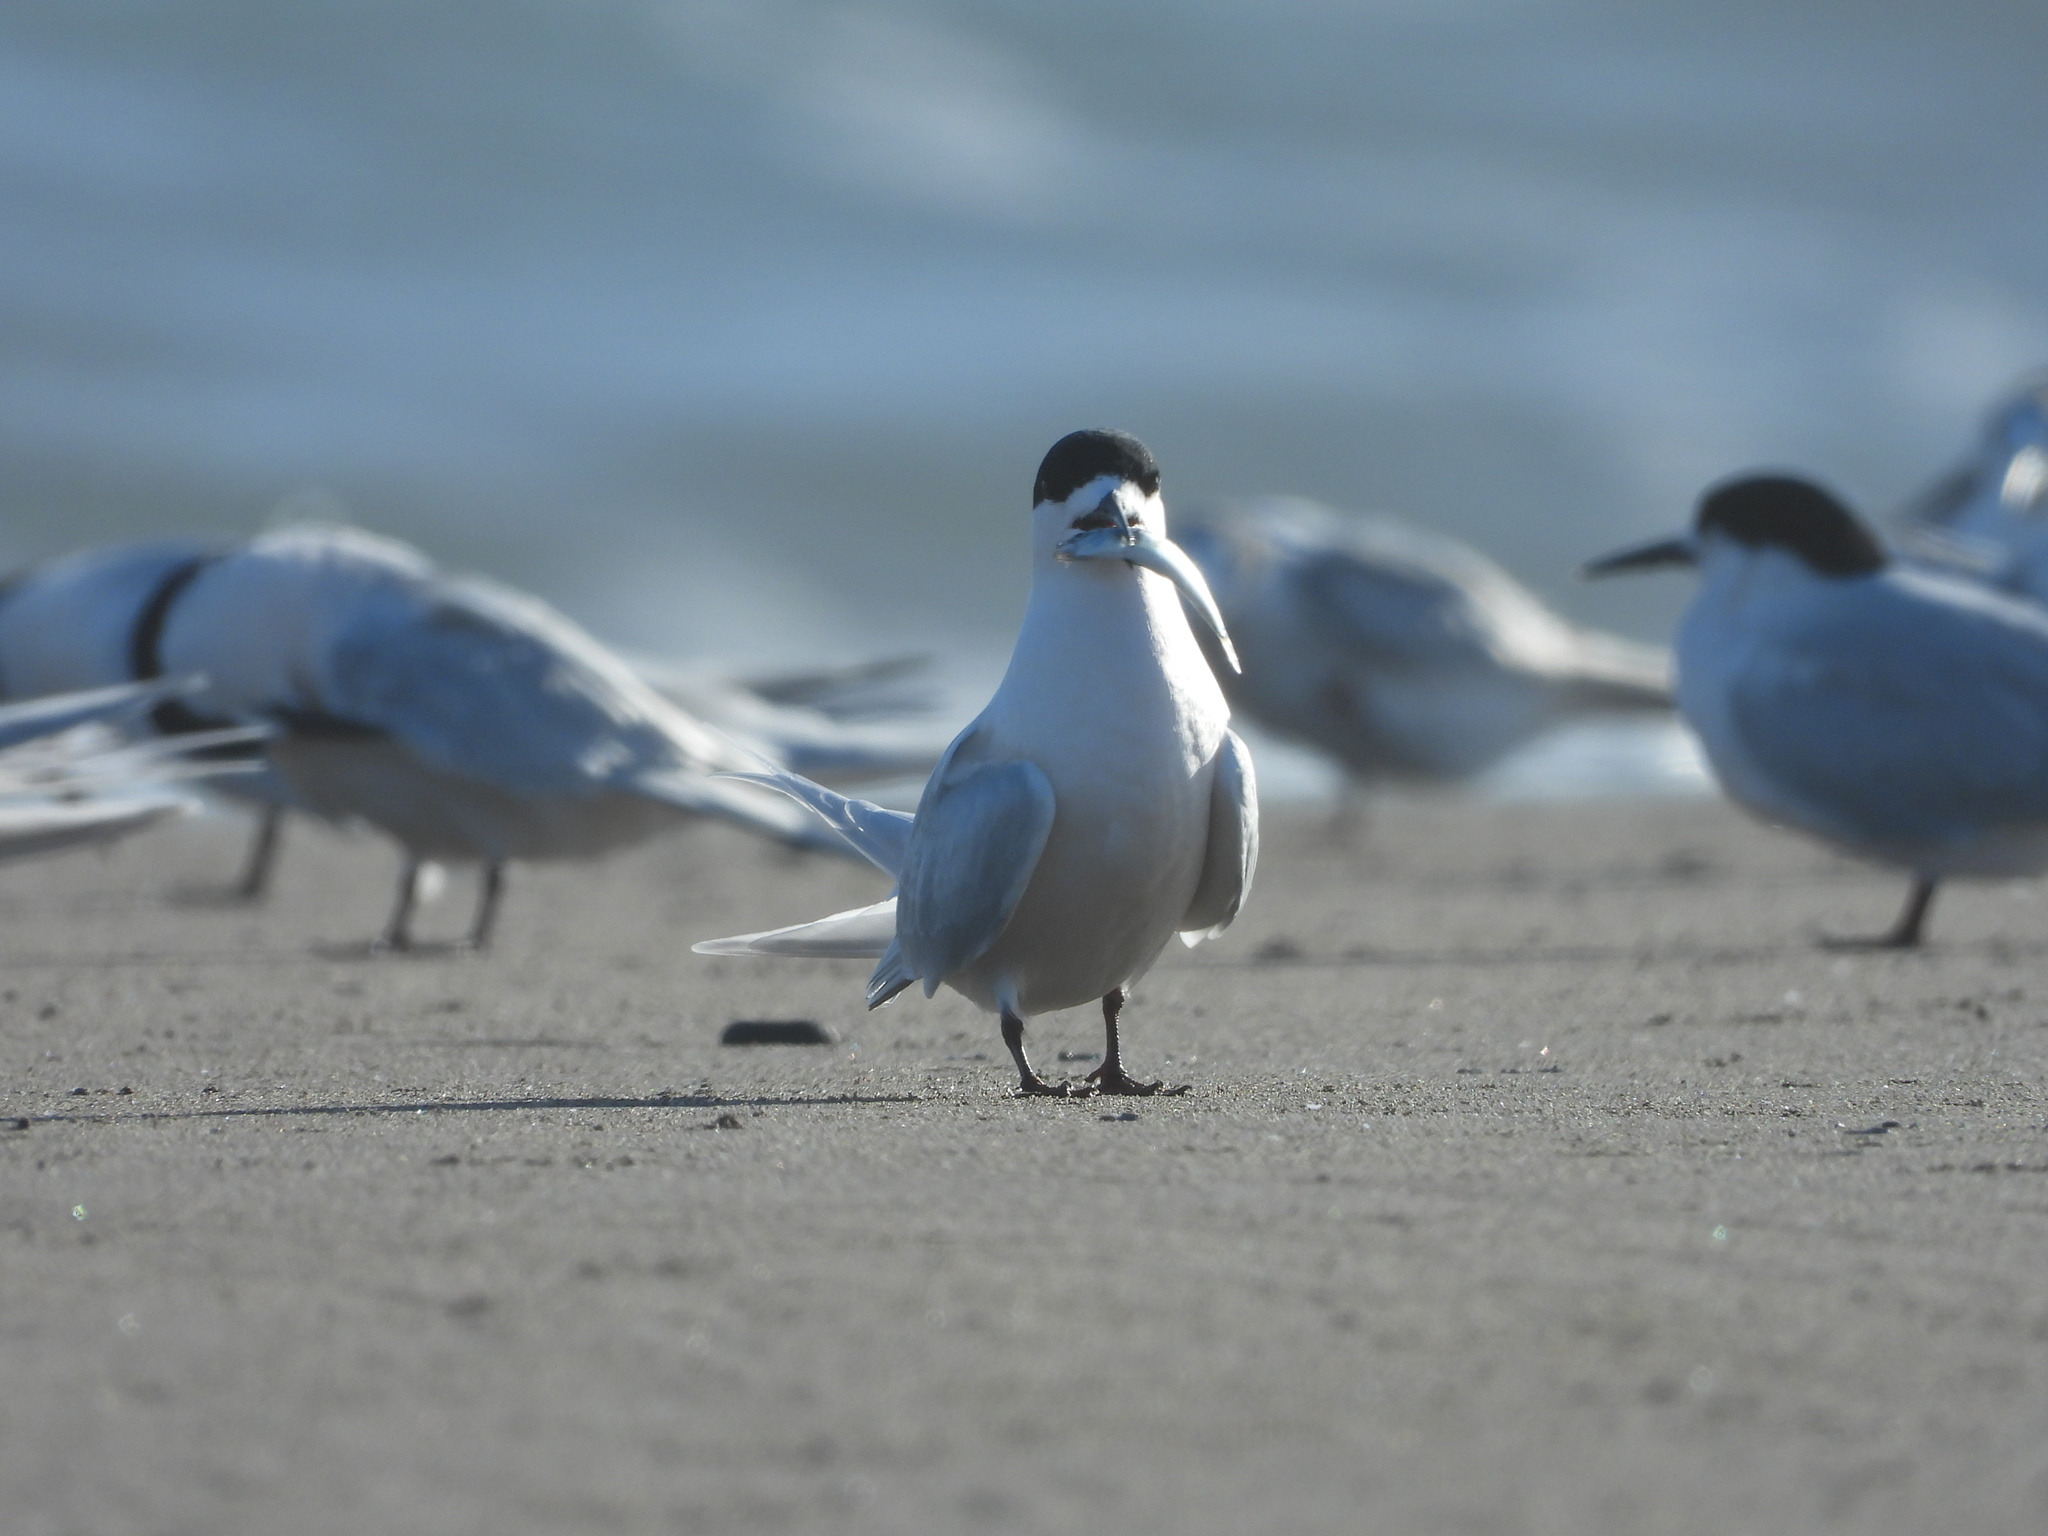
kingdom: Animalia
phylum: Chordata
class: Aves
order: Charadriiformes
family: Laridae
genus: Sterna
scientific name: Sterna striata
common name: White-fronted tern
